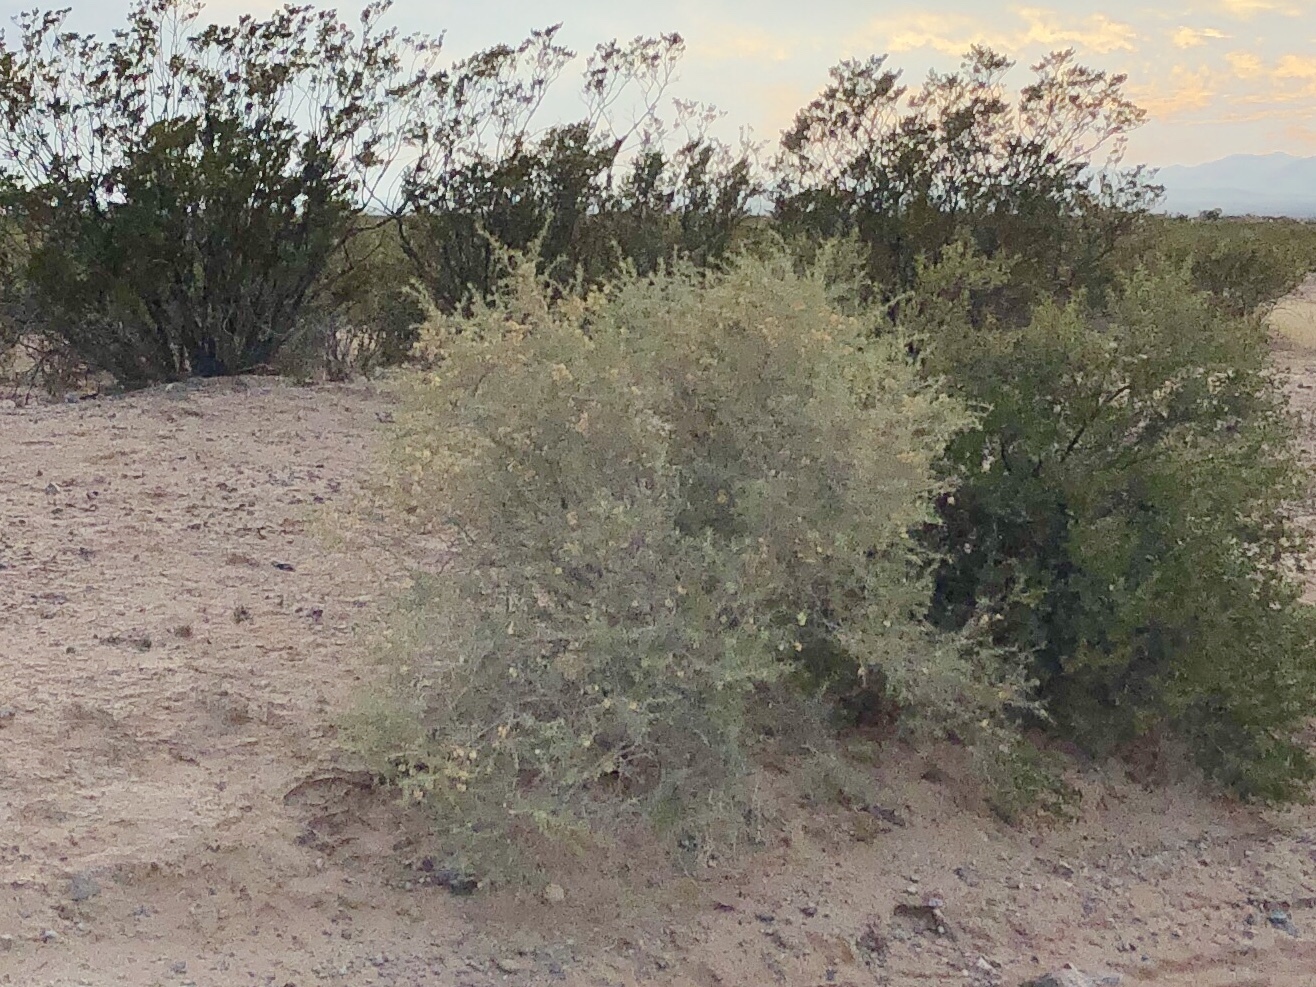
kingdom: Plantae
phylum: Tracheophyta
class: Magnoliopsida
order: Caryophyllales
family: Amaranthaceae
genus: Atriplex
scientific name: Atriplex canescens
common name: Four-wing saltbush
